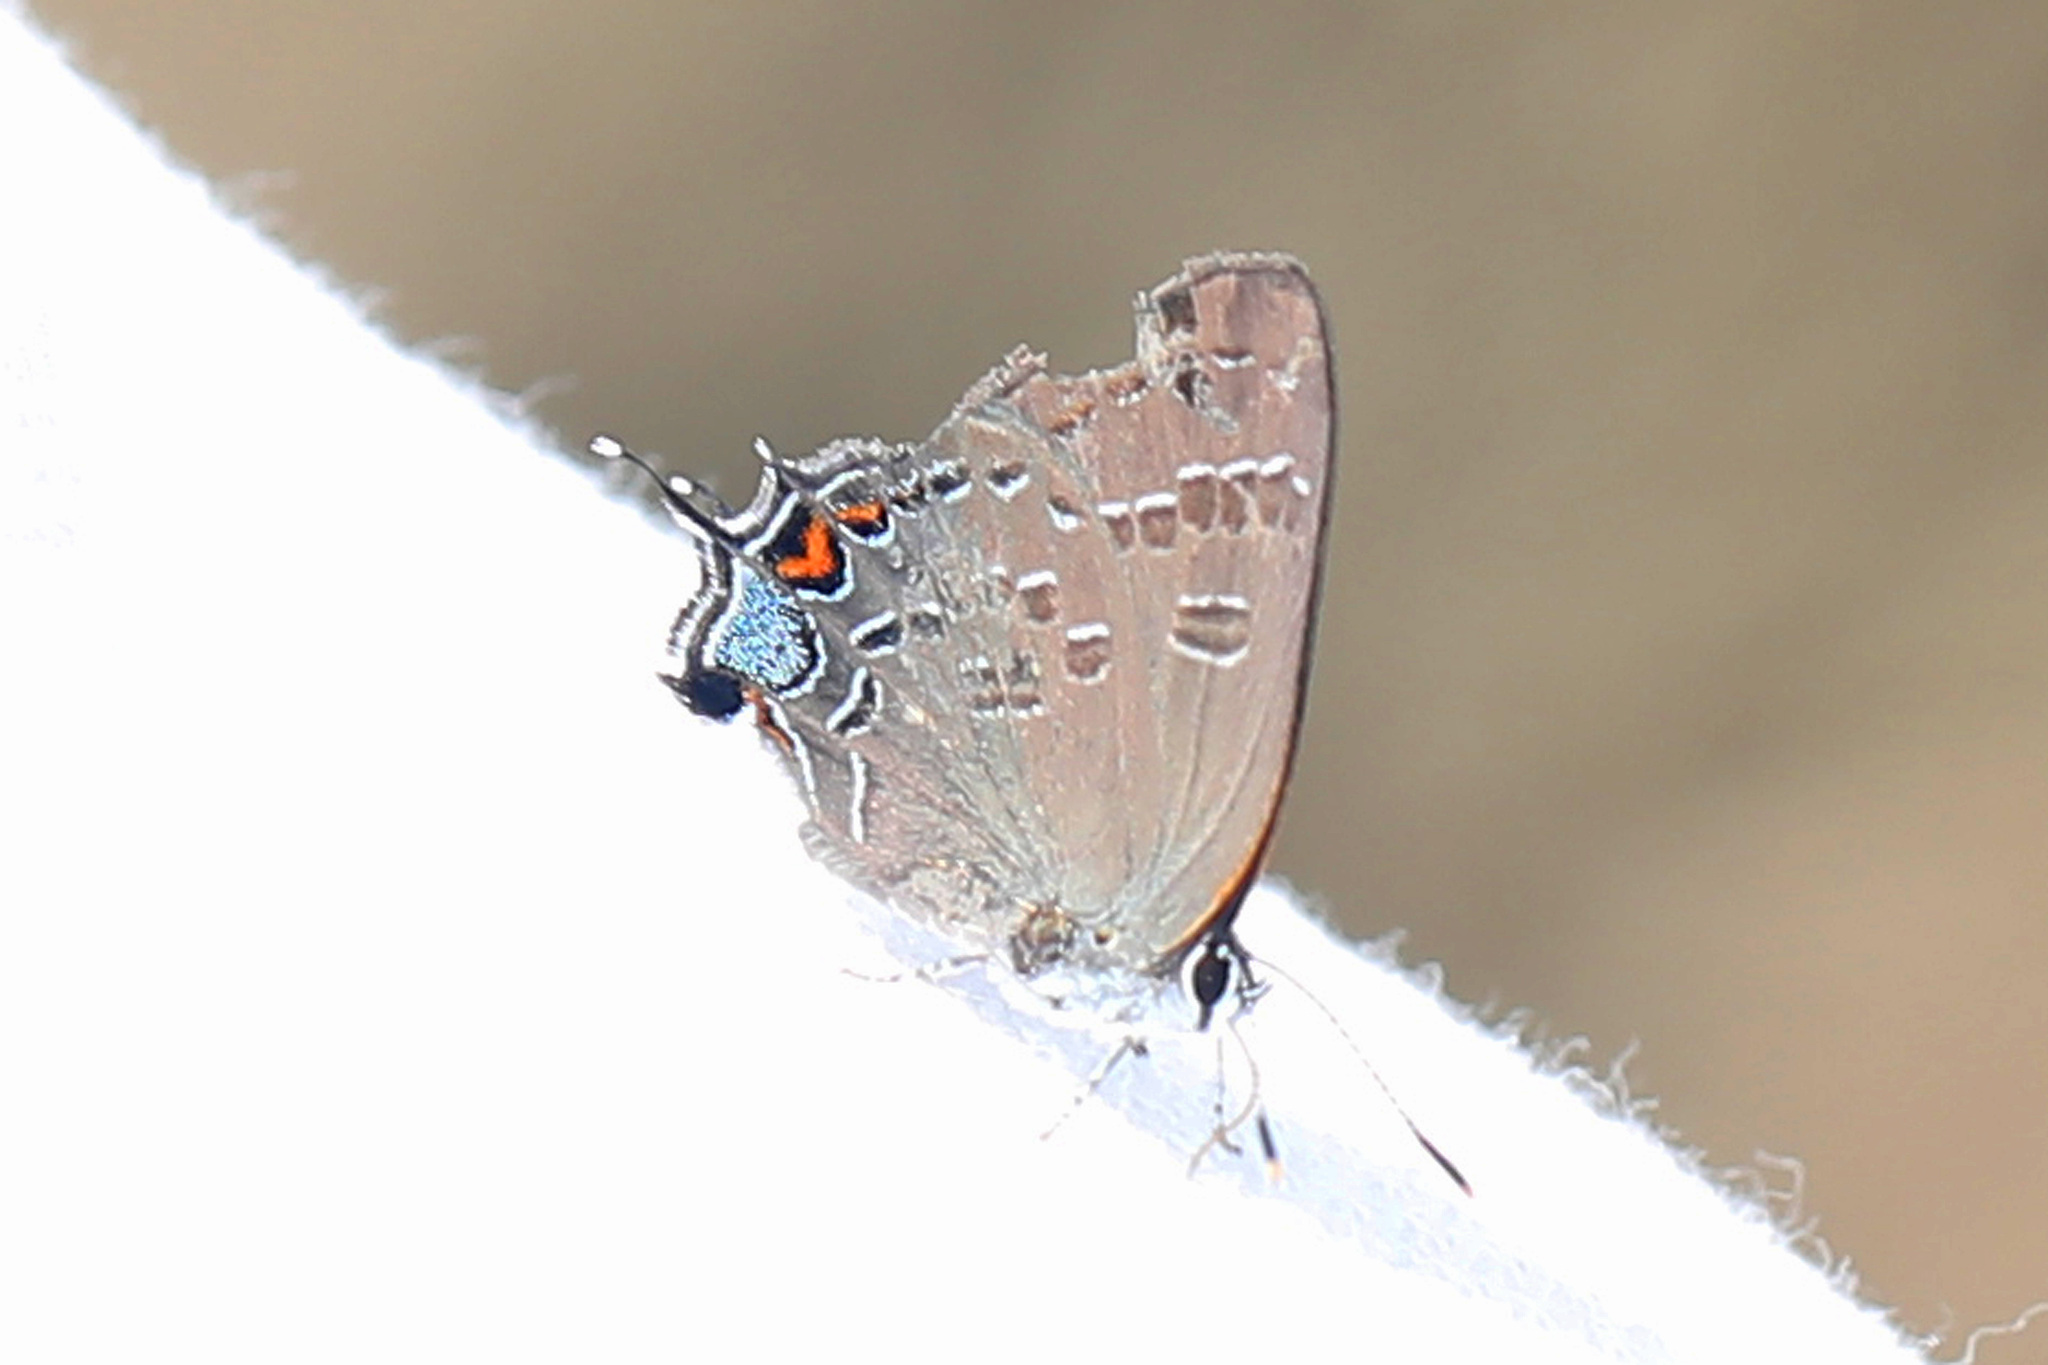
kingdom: Animalia
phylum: Arthropoda
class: Insecta
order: Lepidoptera
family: Lycaenidae
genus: Satyrium
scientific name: Satyrium calanus
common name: Banded hairstreak
